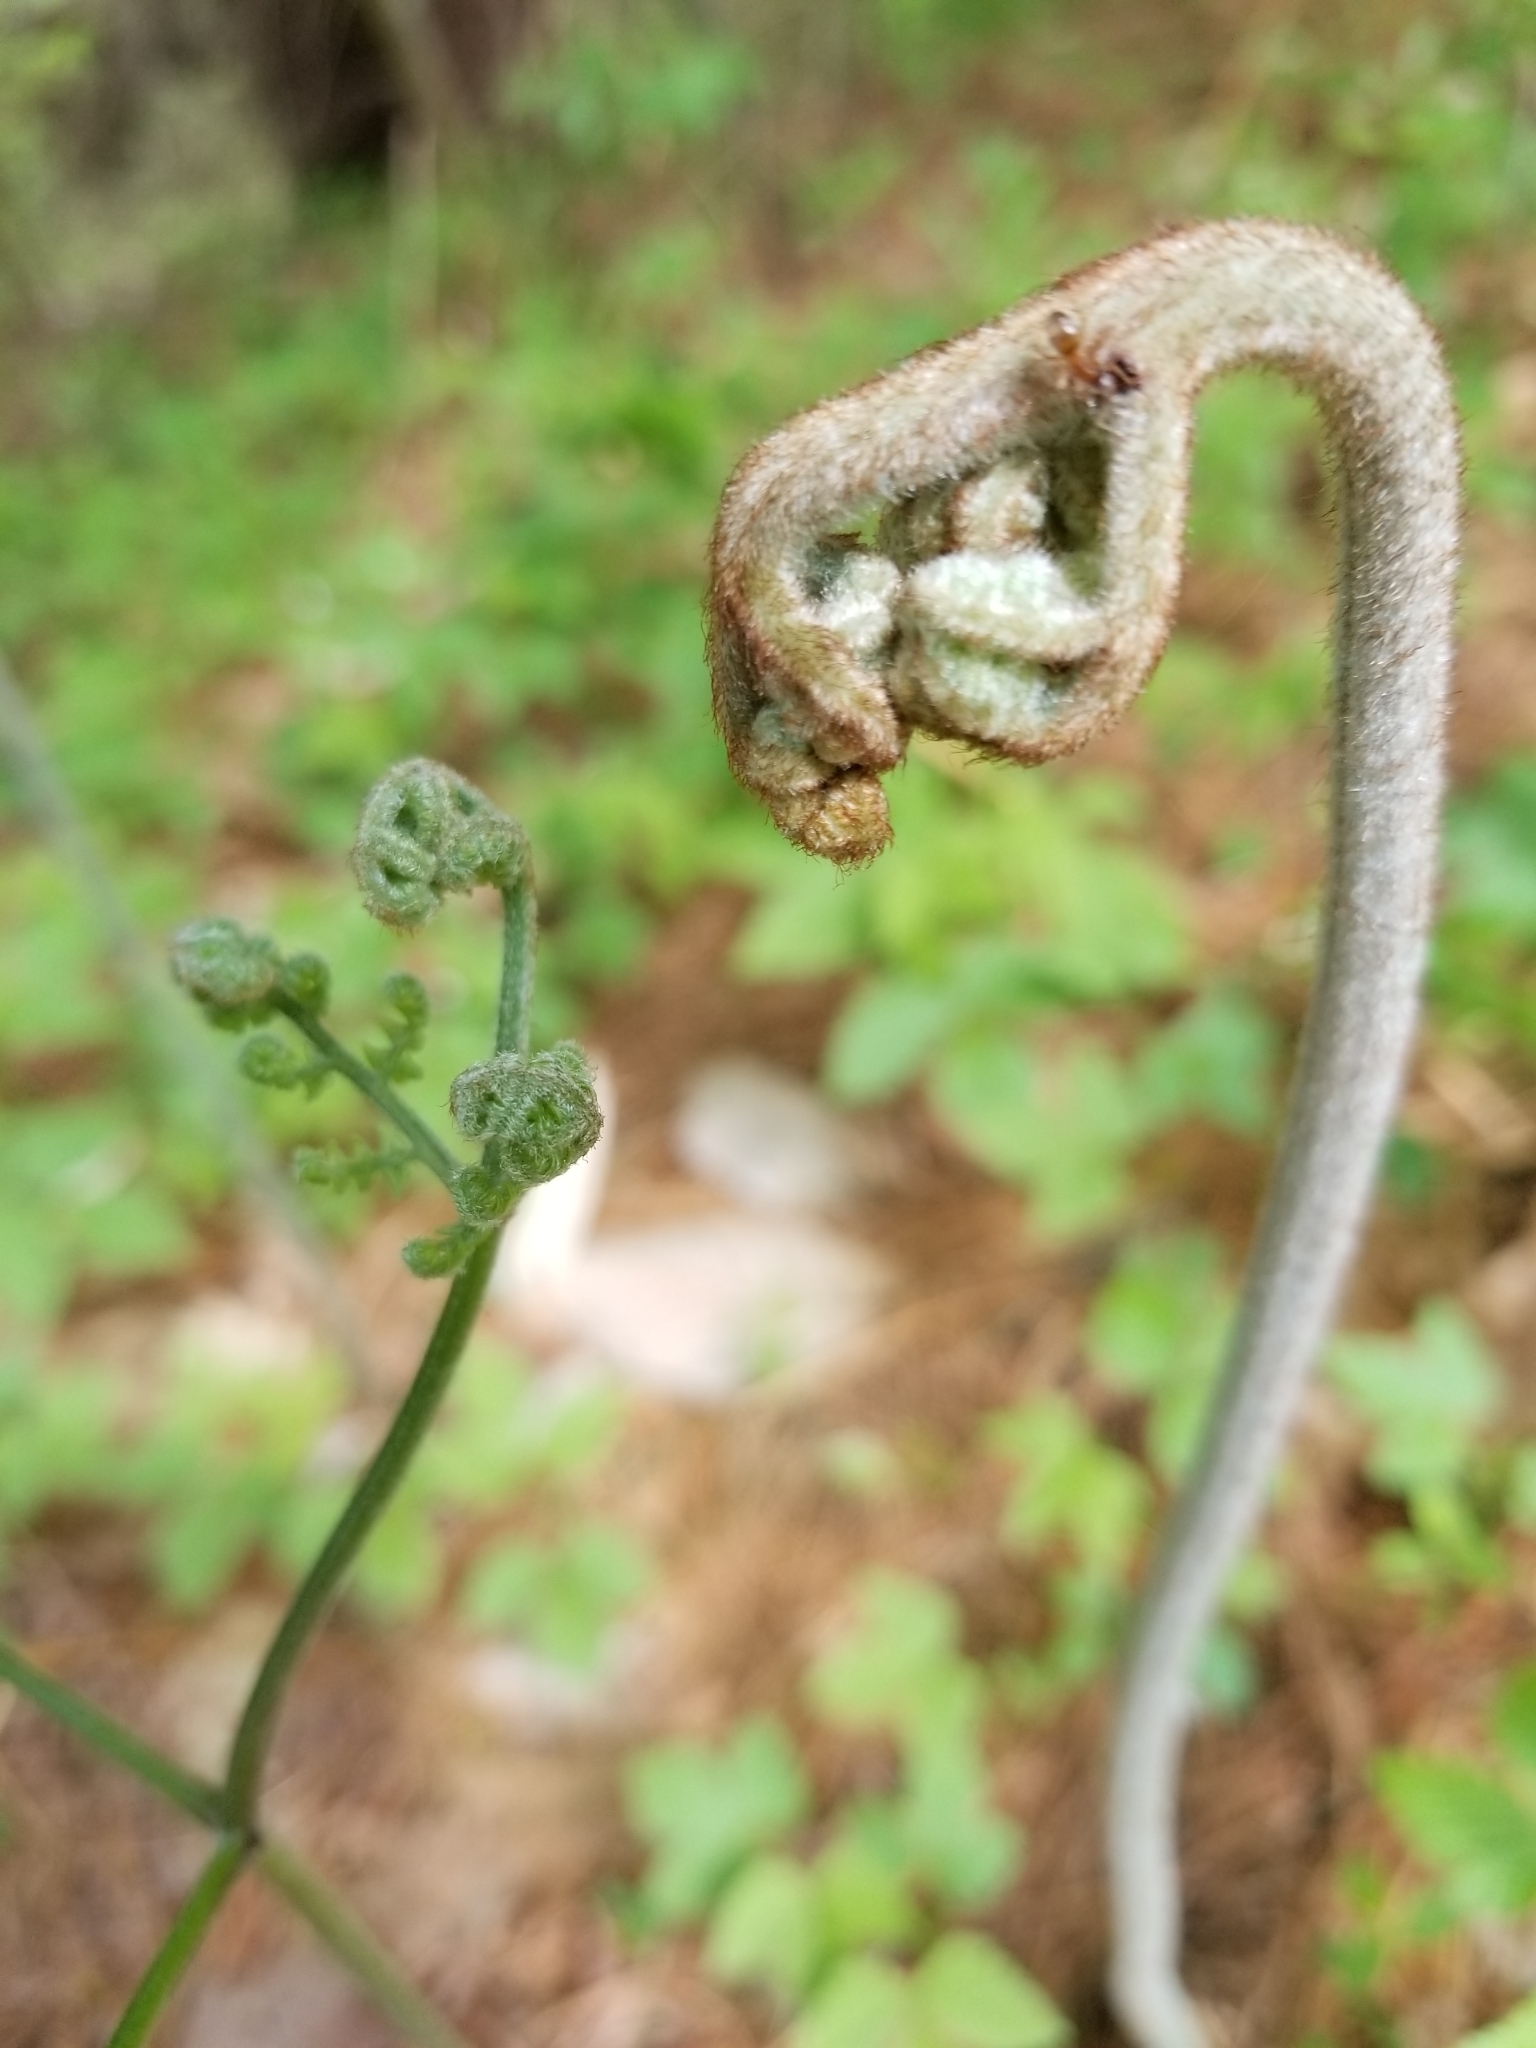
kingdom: Plantae
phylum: Tracheophyta
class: Polypodiopsida
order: Polypodiales
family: Dennstaedtiaceae
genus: Pteridium
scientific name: Pteridium aquilinum
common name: Bracken
